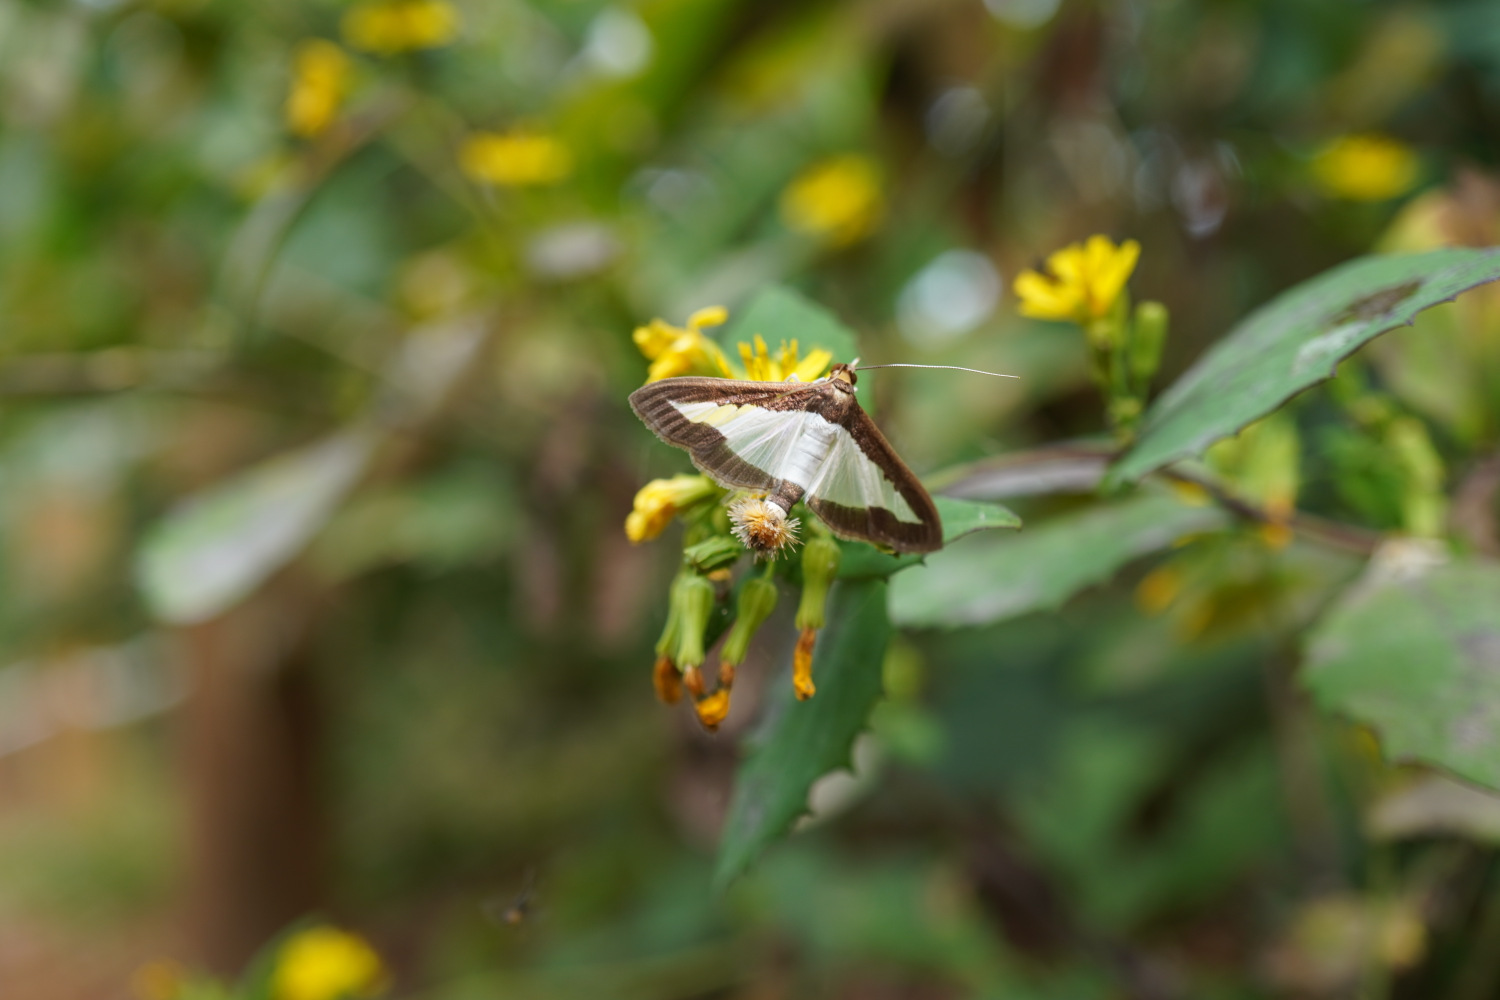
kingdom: Animalia
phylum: Arthropoda
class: Insecta
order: Lepidoptera
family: Crambidae
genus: Diaphania
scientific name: Diaphania indica
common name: Cucumber moth
